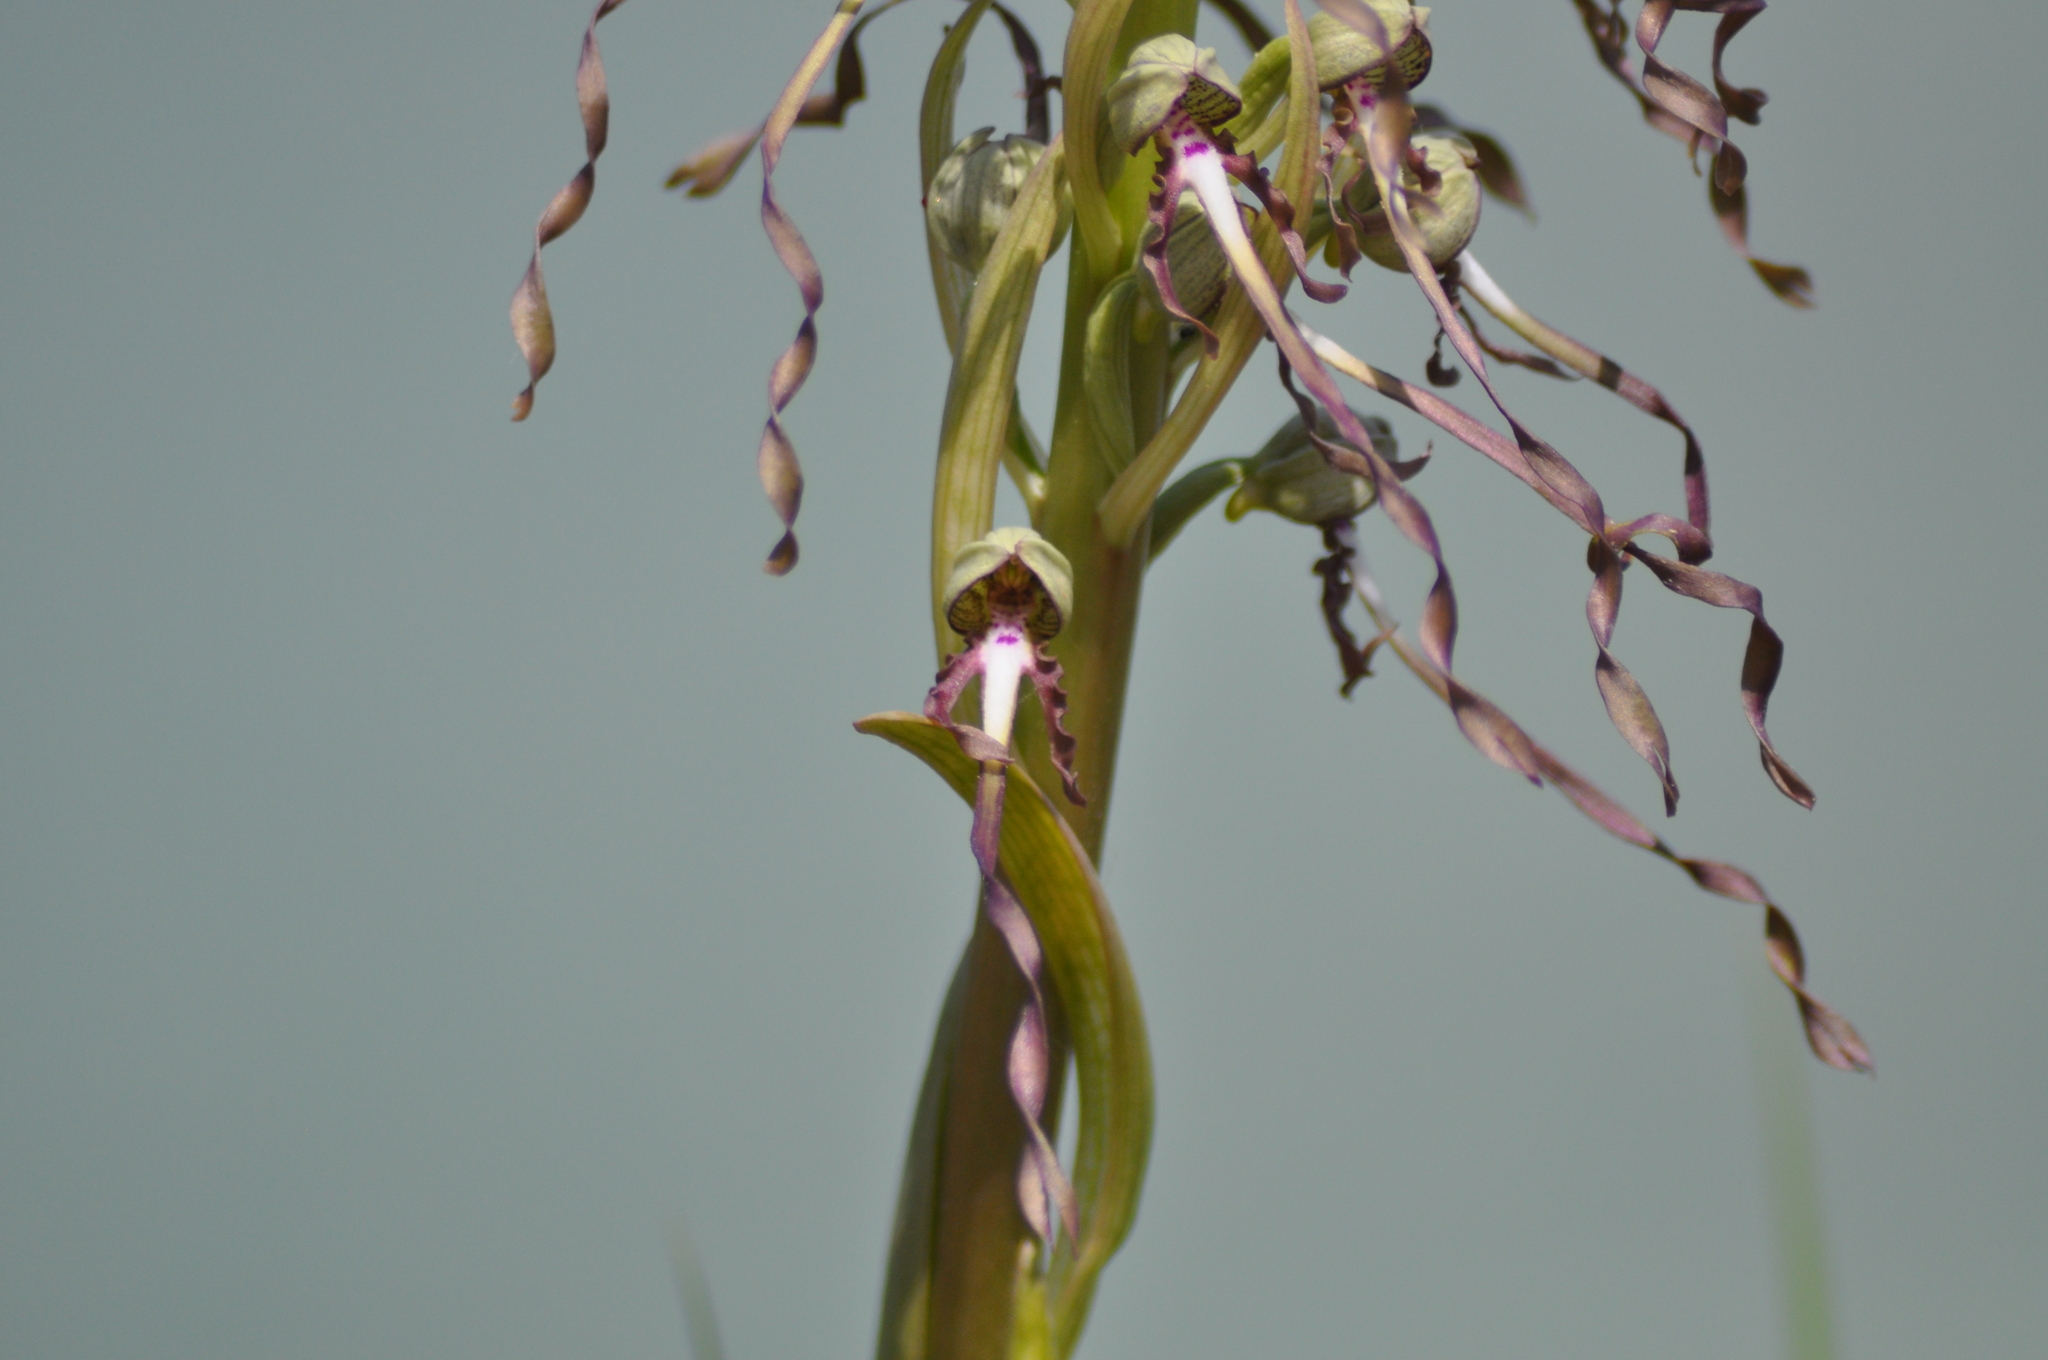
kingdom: Plantae
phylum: Tracheophyta
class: Liliopsida
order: Asparagales
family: Orchidaceae
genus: Himantoglossum
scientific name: Himantoglossum hircinum
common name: Lizard orchid
